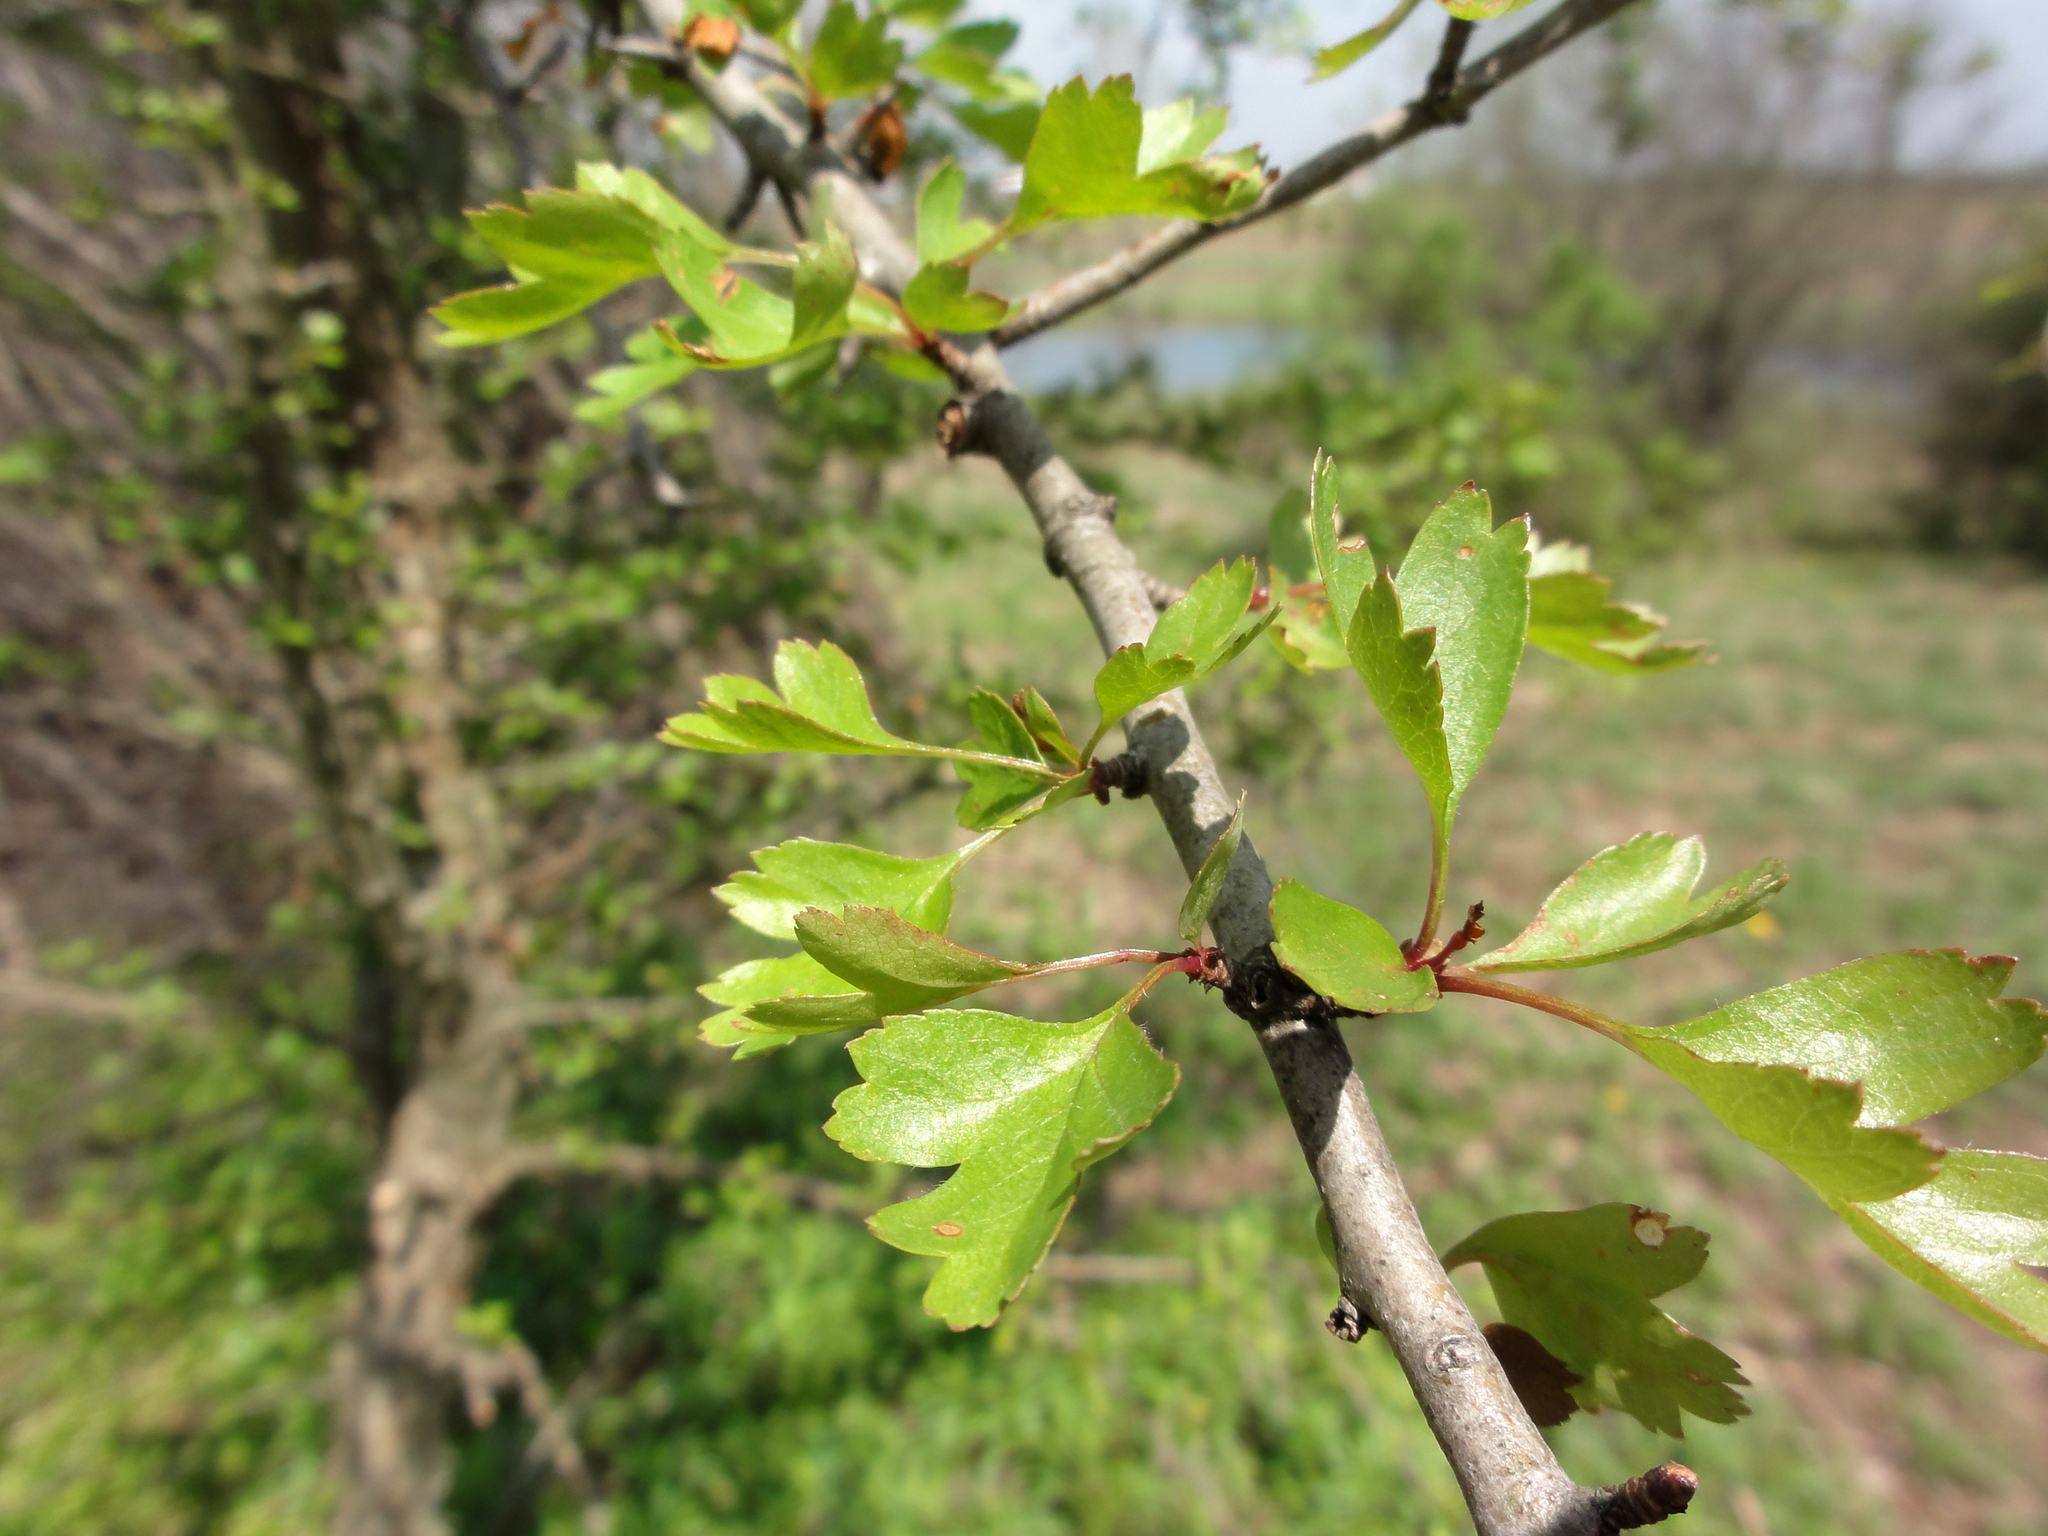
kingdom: Plantae
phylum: Tracheophyta
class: Magnoliopsida
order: Rosales
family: Rosaceae
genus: Crataegus
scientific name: Crataegus monogyna
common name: Hawthorn
